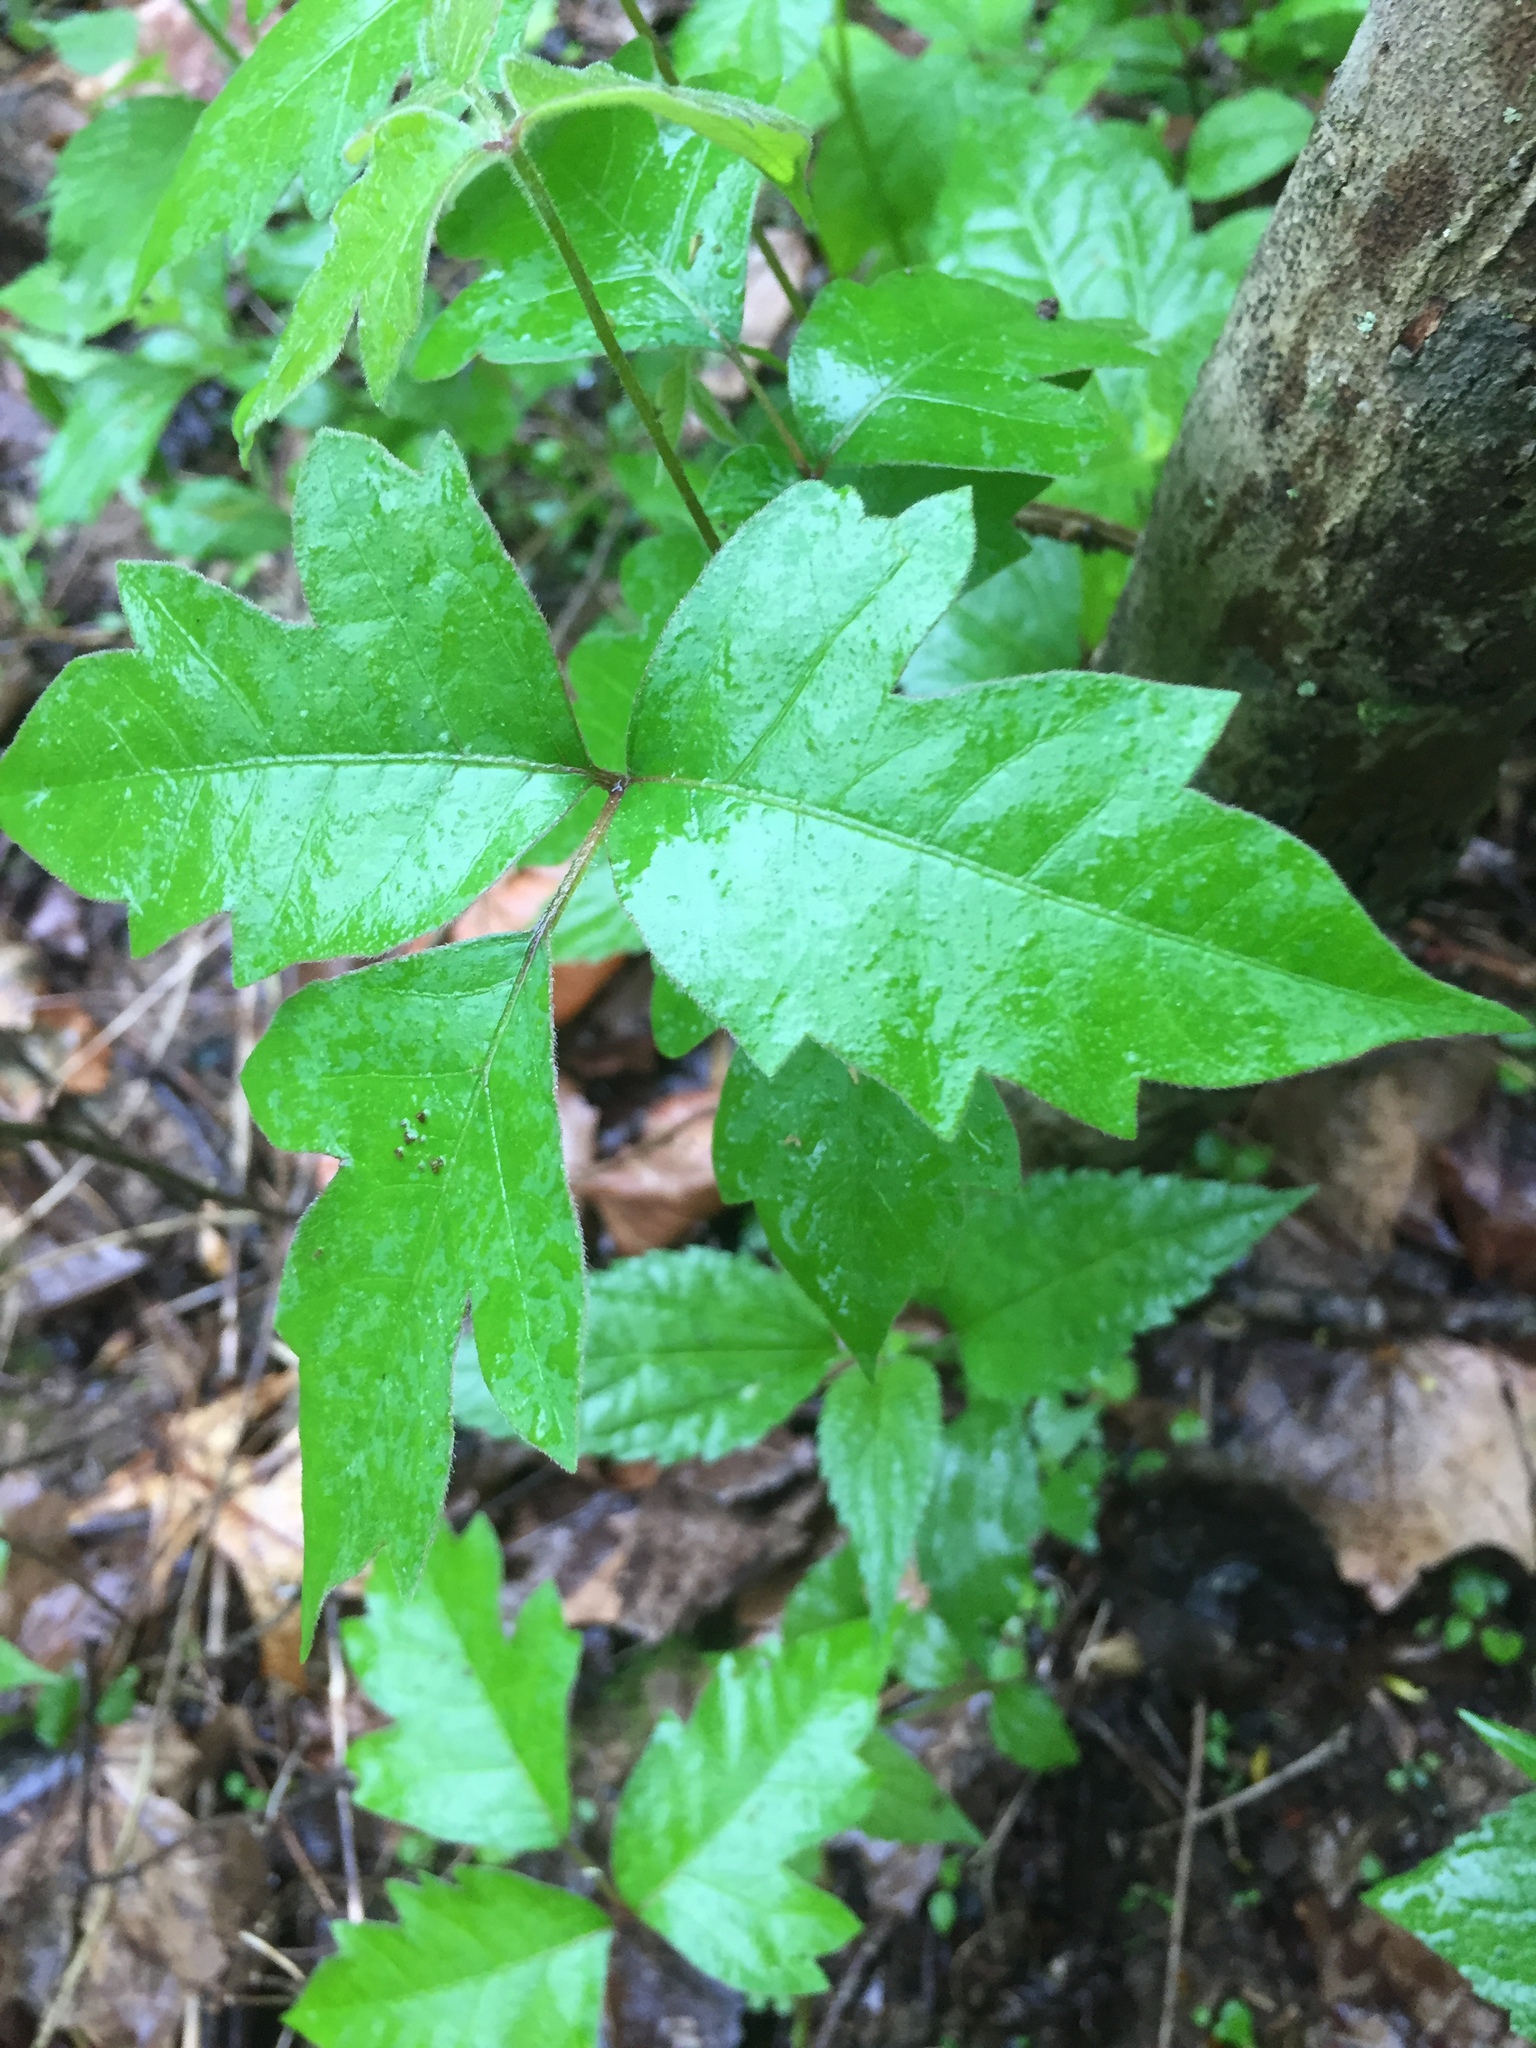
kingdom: Plantae
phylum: Tracheophyta
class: Magnoliopsida
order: Sapindales
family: Anacardiaceae
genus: Toxicodendron
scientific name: Toxicodendron radicans
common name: Poison ivy
